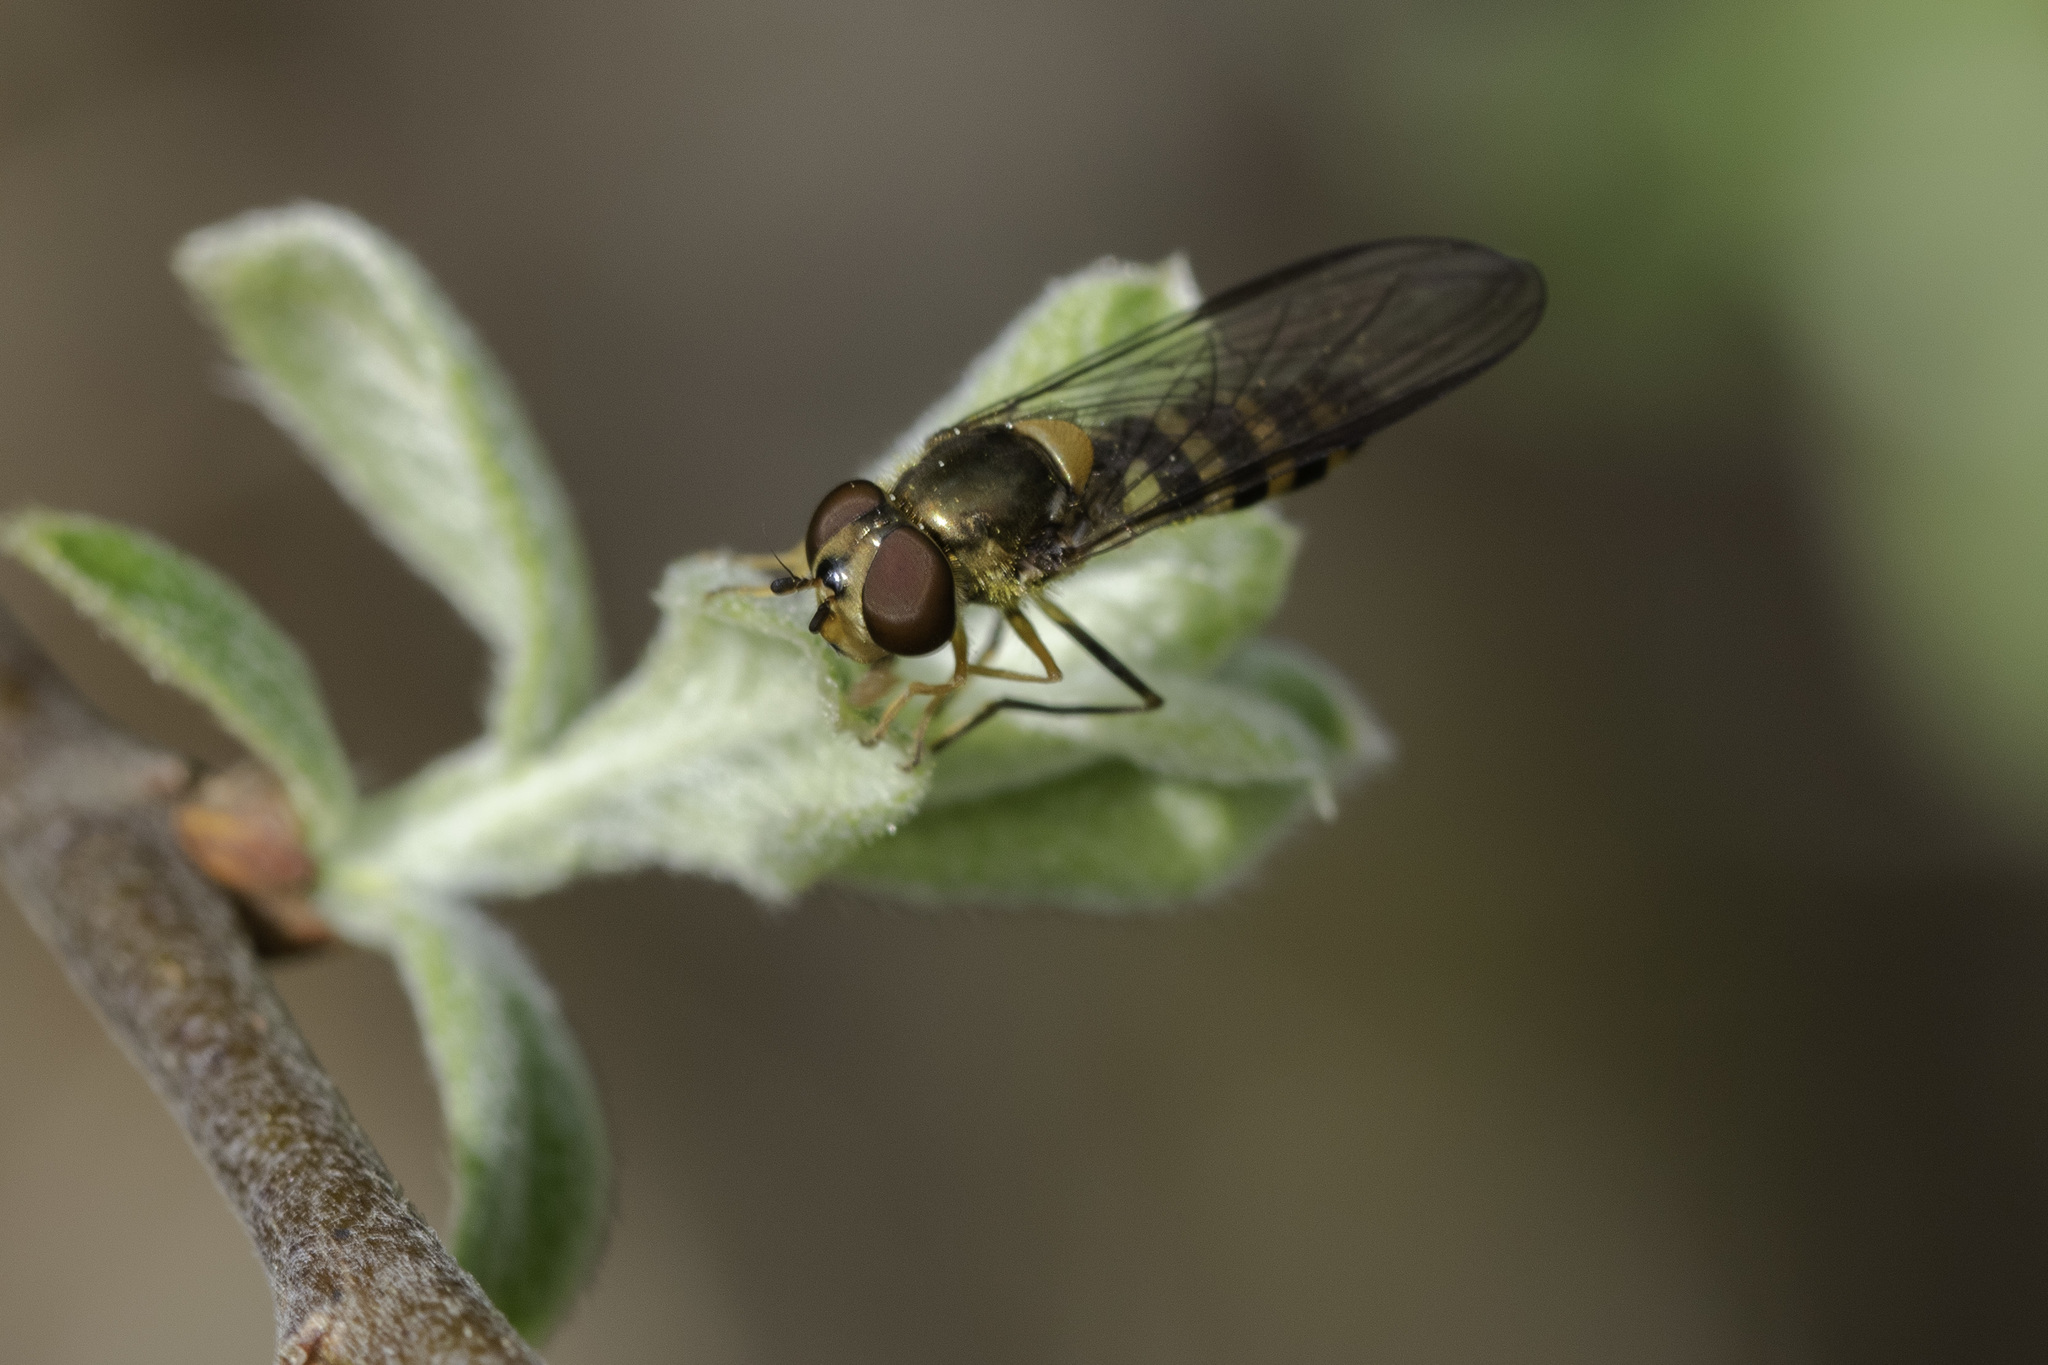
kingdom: Animalia
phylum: Arthropoda
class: Insecta
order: Diptera
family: Syrphidae
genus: Meliscaeva
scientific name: Meliscaeva cinctella
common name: American thintail fly
